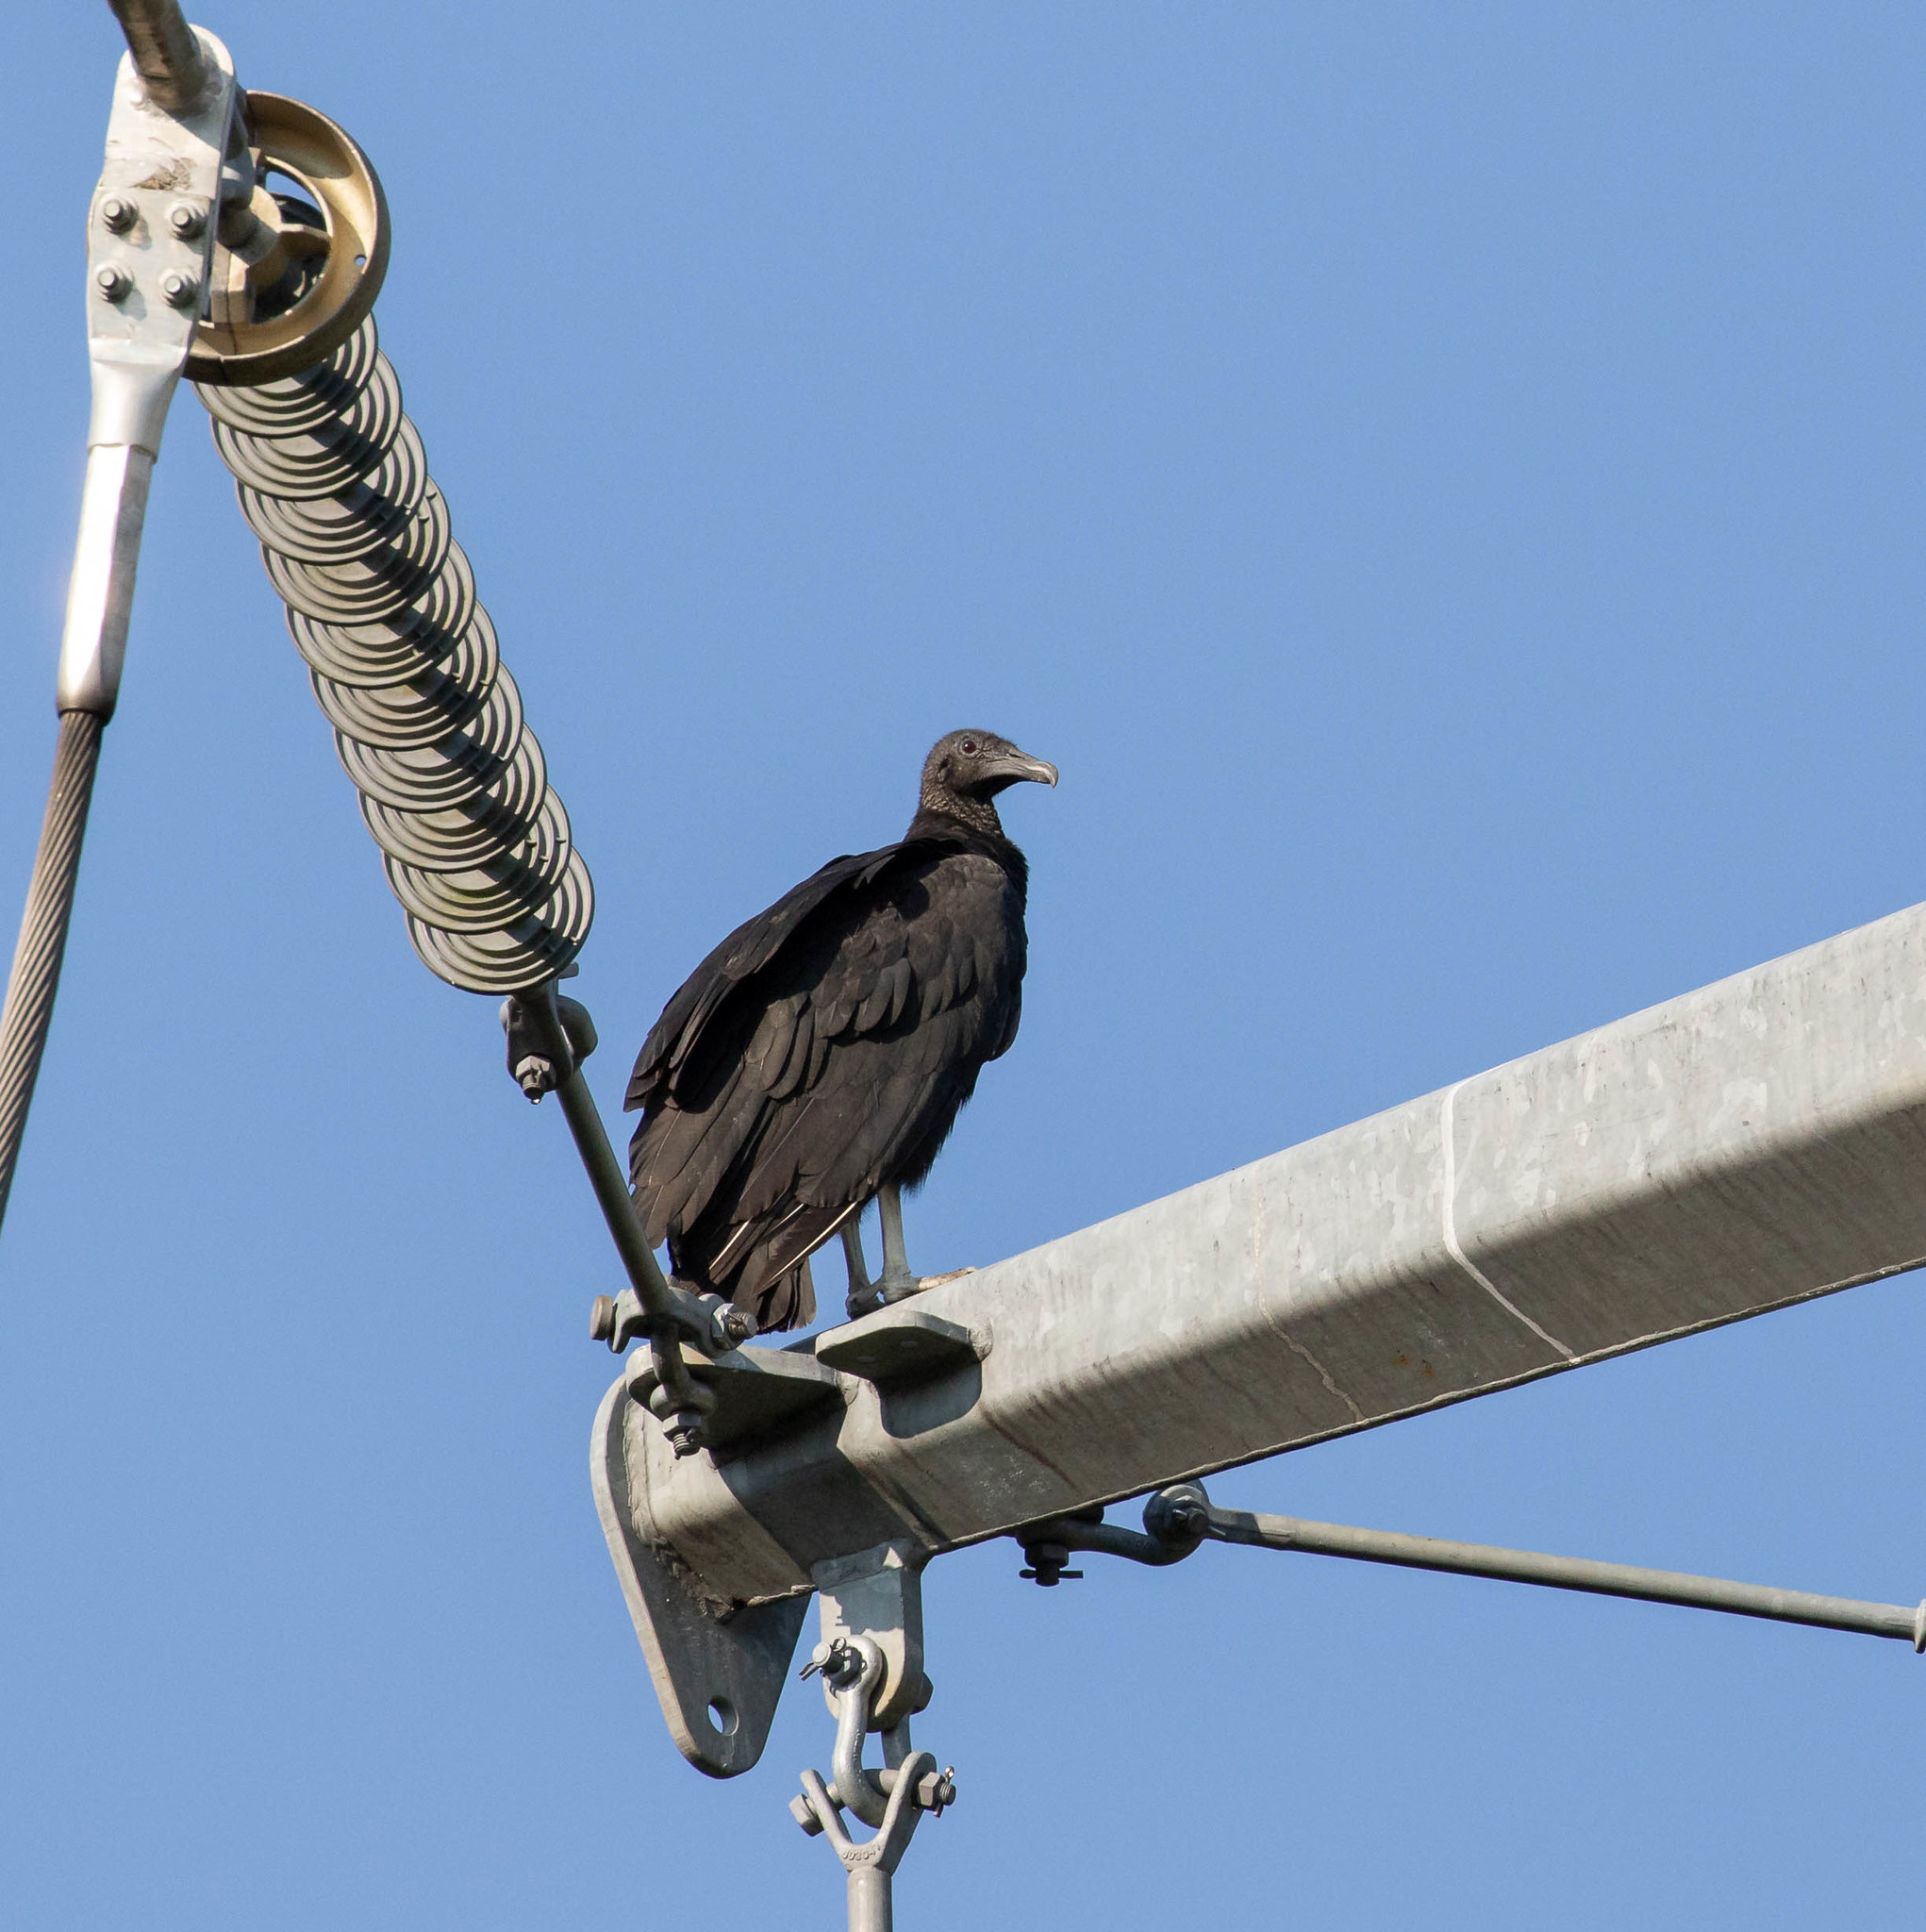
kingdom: Animalia
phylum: Chordata
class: Aves
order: Accipitriformes
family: Cathartidae
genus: Coragyps
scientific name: Coragyps atratus
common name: Black vulture
